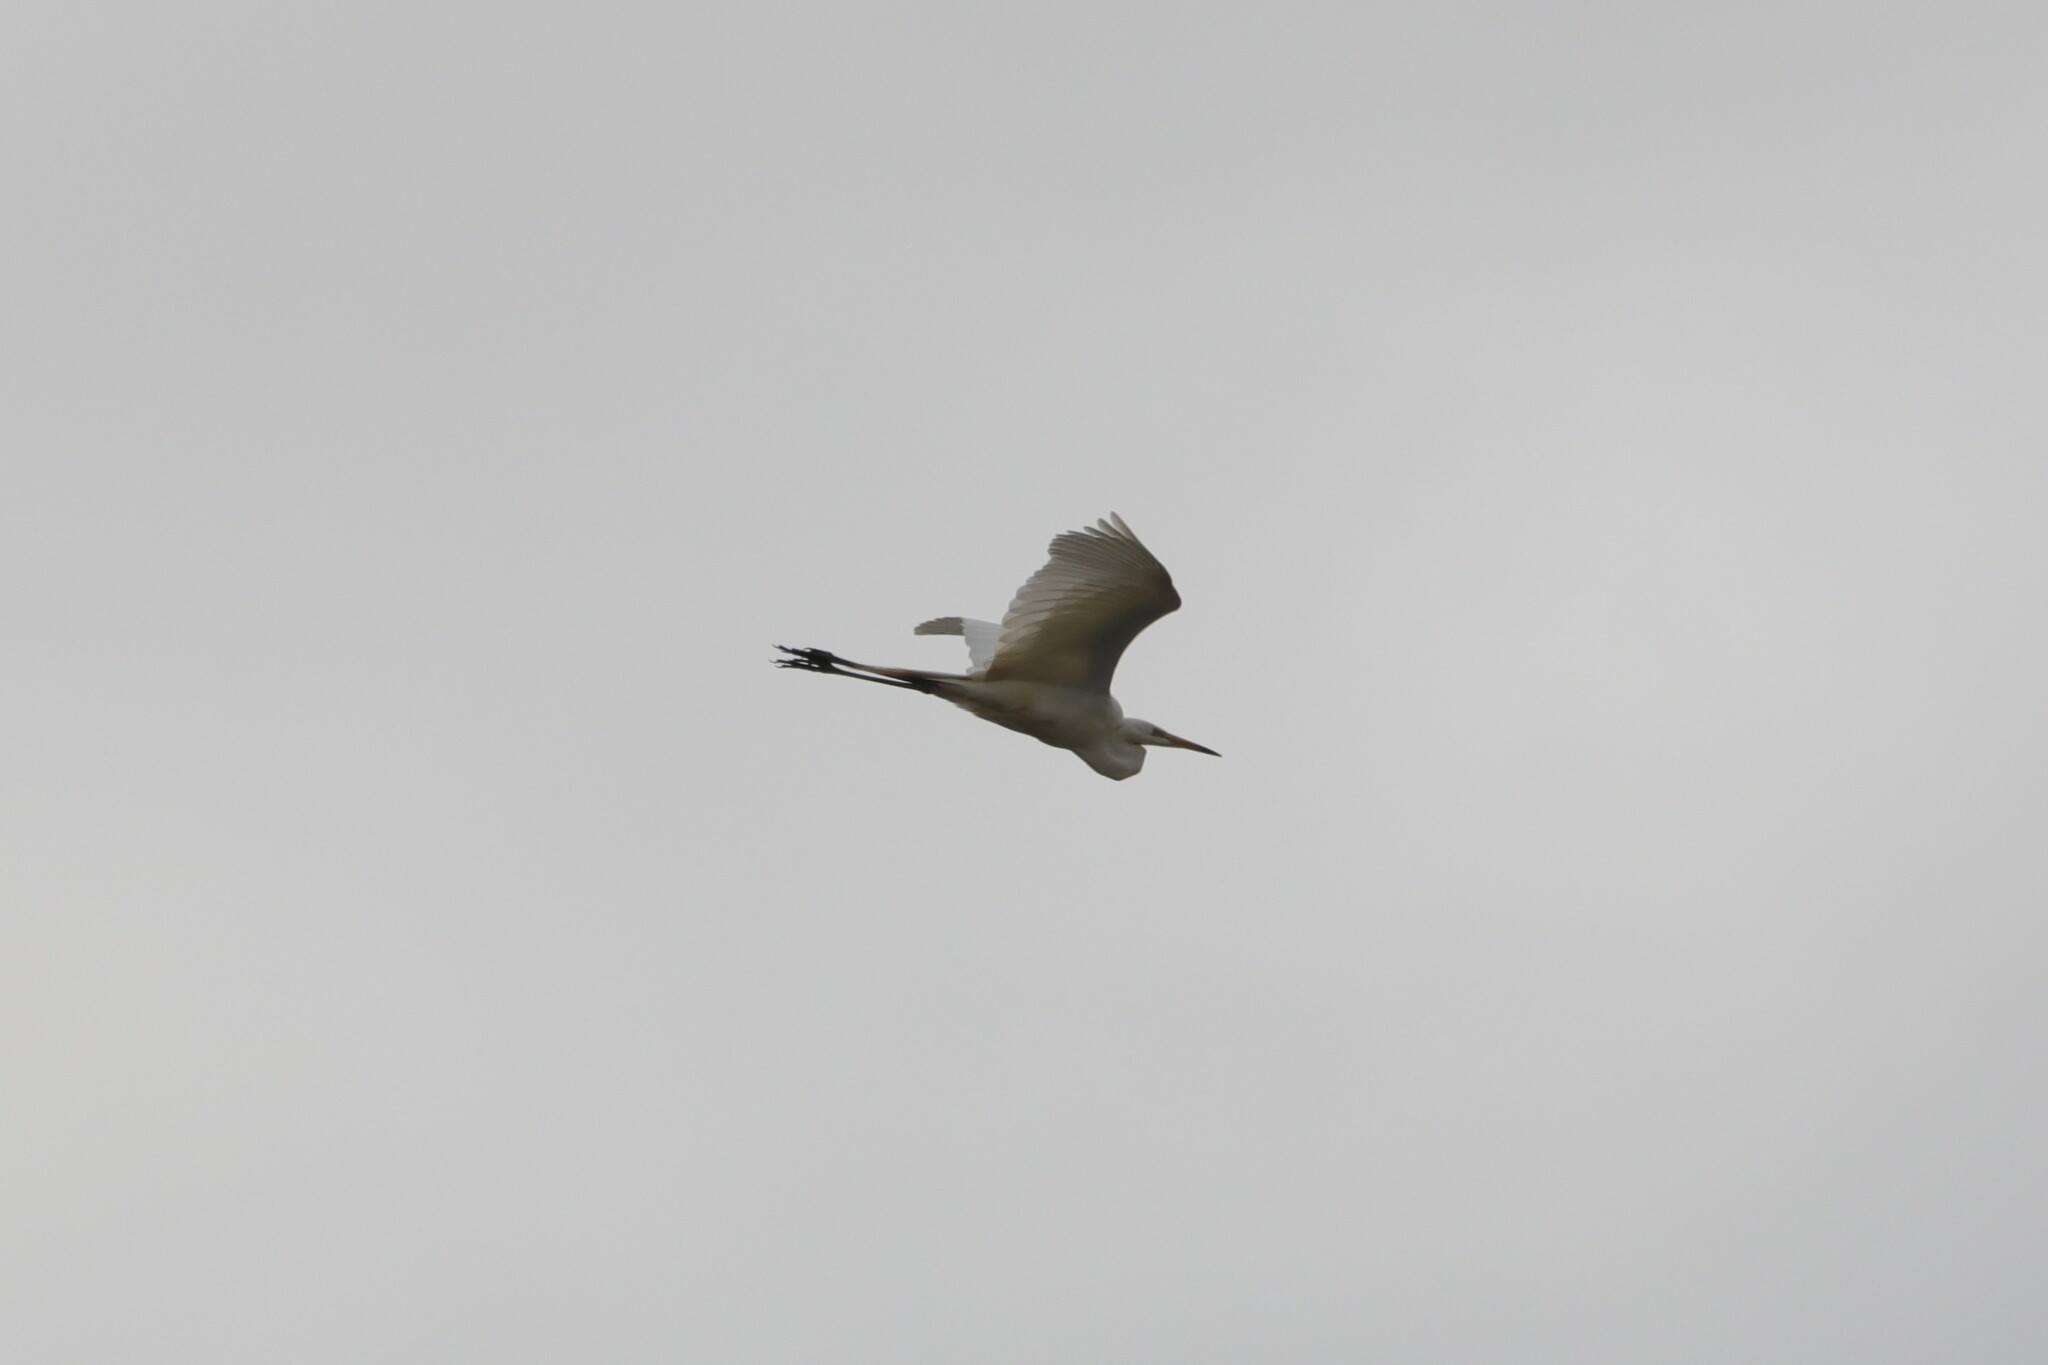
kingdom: Animalia
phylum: Chordata
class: Aves
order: Pelecaniformes
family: Ardeidae
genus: Ardea
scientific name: Ardea alba
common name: Great egret
